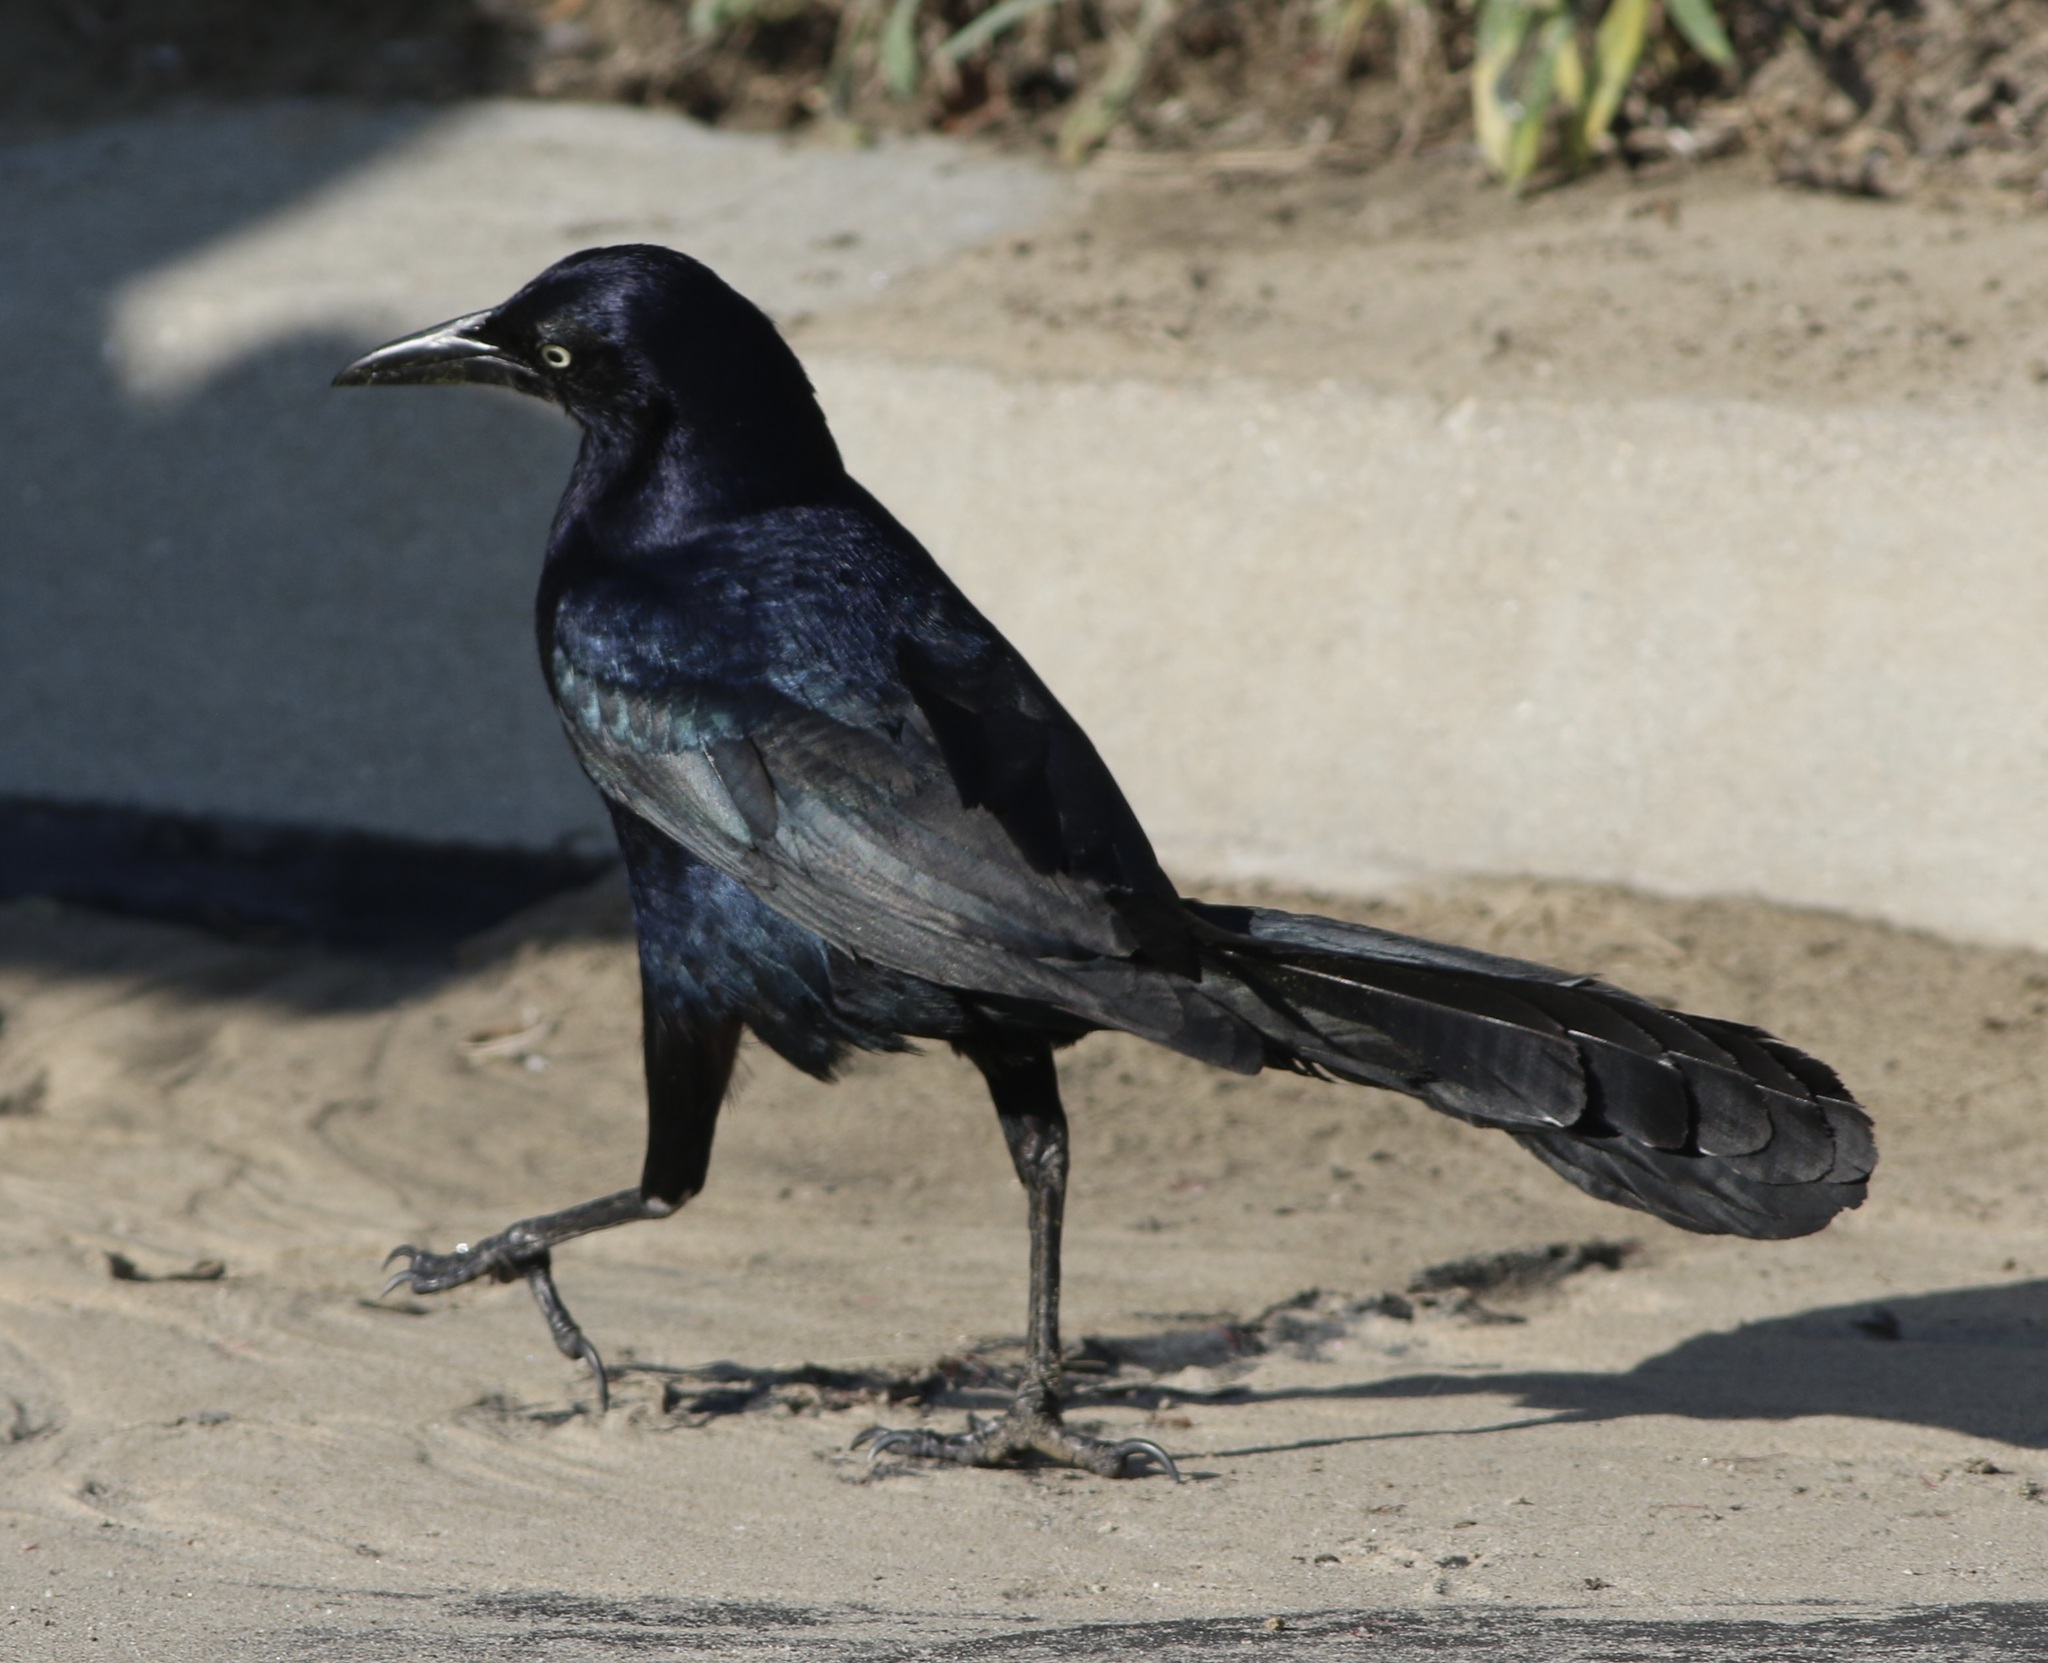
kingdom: Animalia
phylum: Chordata
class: Aves
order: Passeriformes
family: Icteridae
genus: Quiscalus
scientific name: Quiscalus mexicanus
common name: Great-tailed grackle
